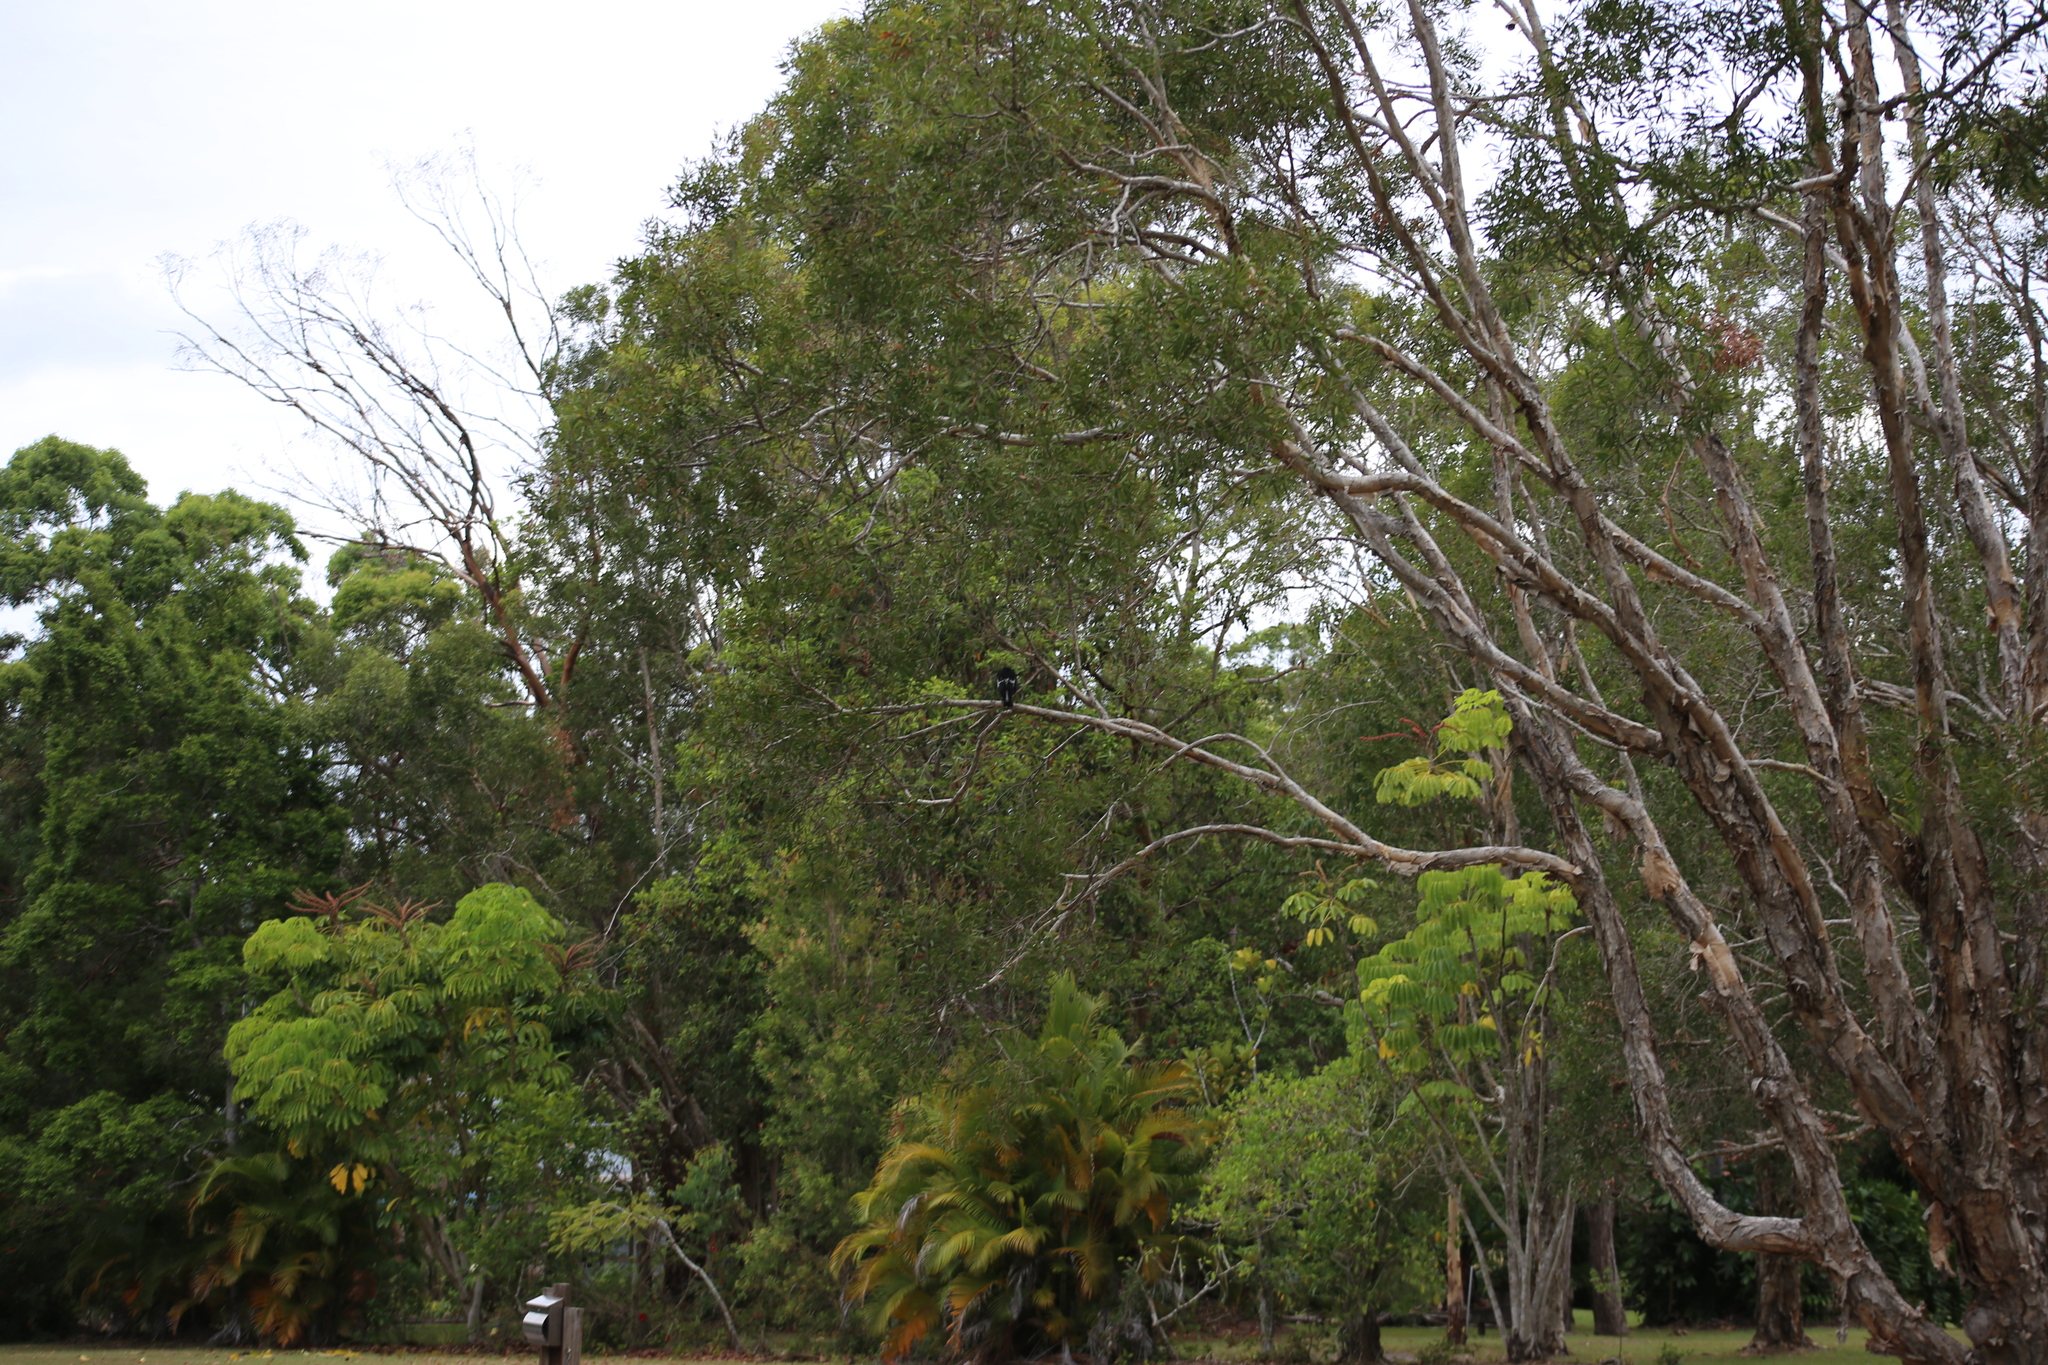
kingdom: Animalia
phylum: Chordata
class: Aves
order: Passeriformes
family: Cracticidae
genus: Gymnorhina
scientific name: Gymnorhina tibicen
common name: Australian magpie
